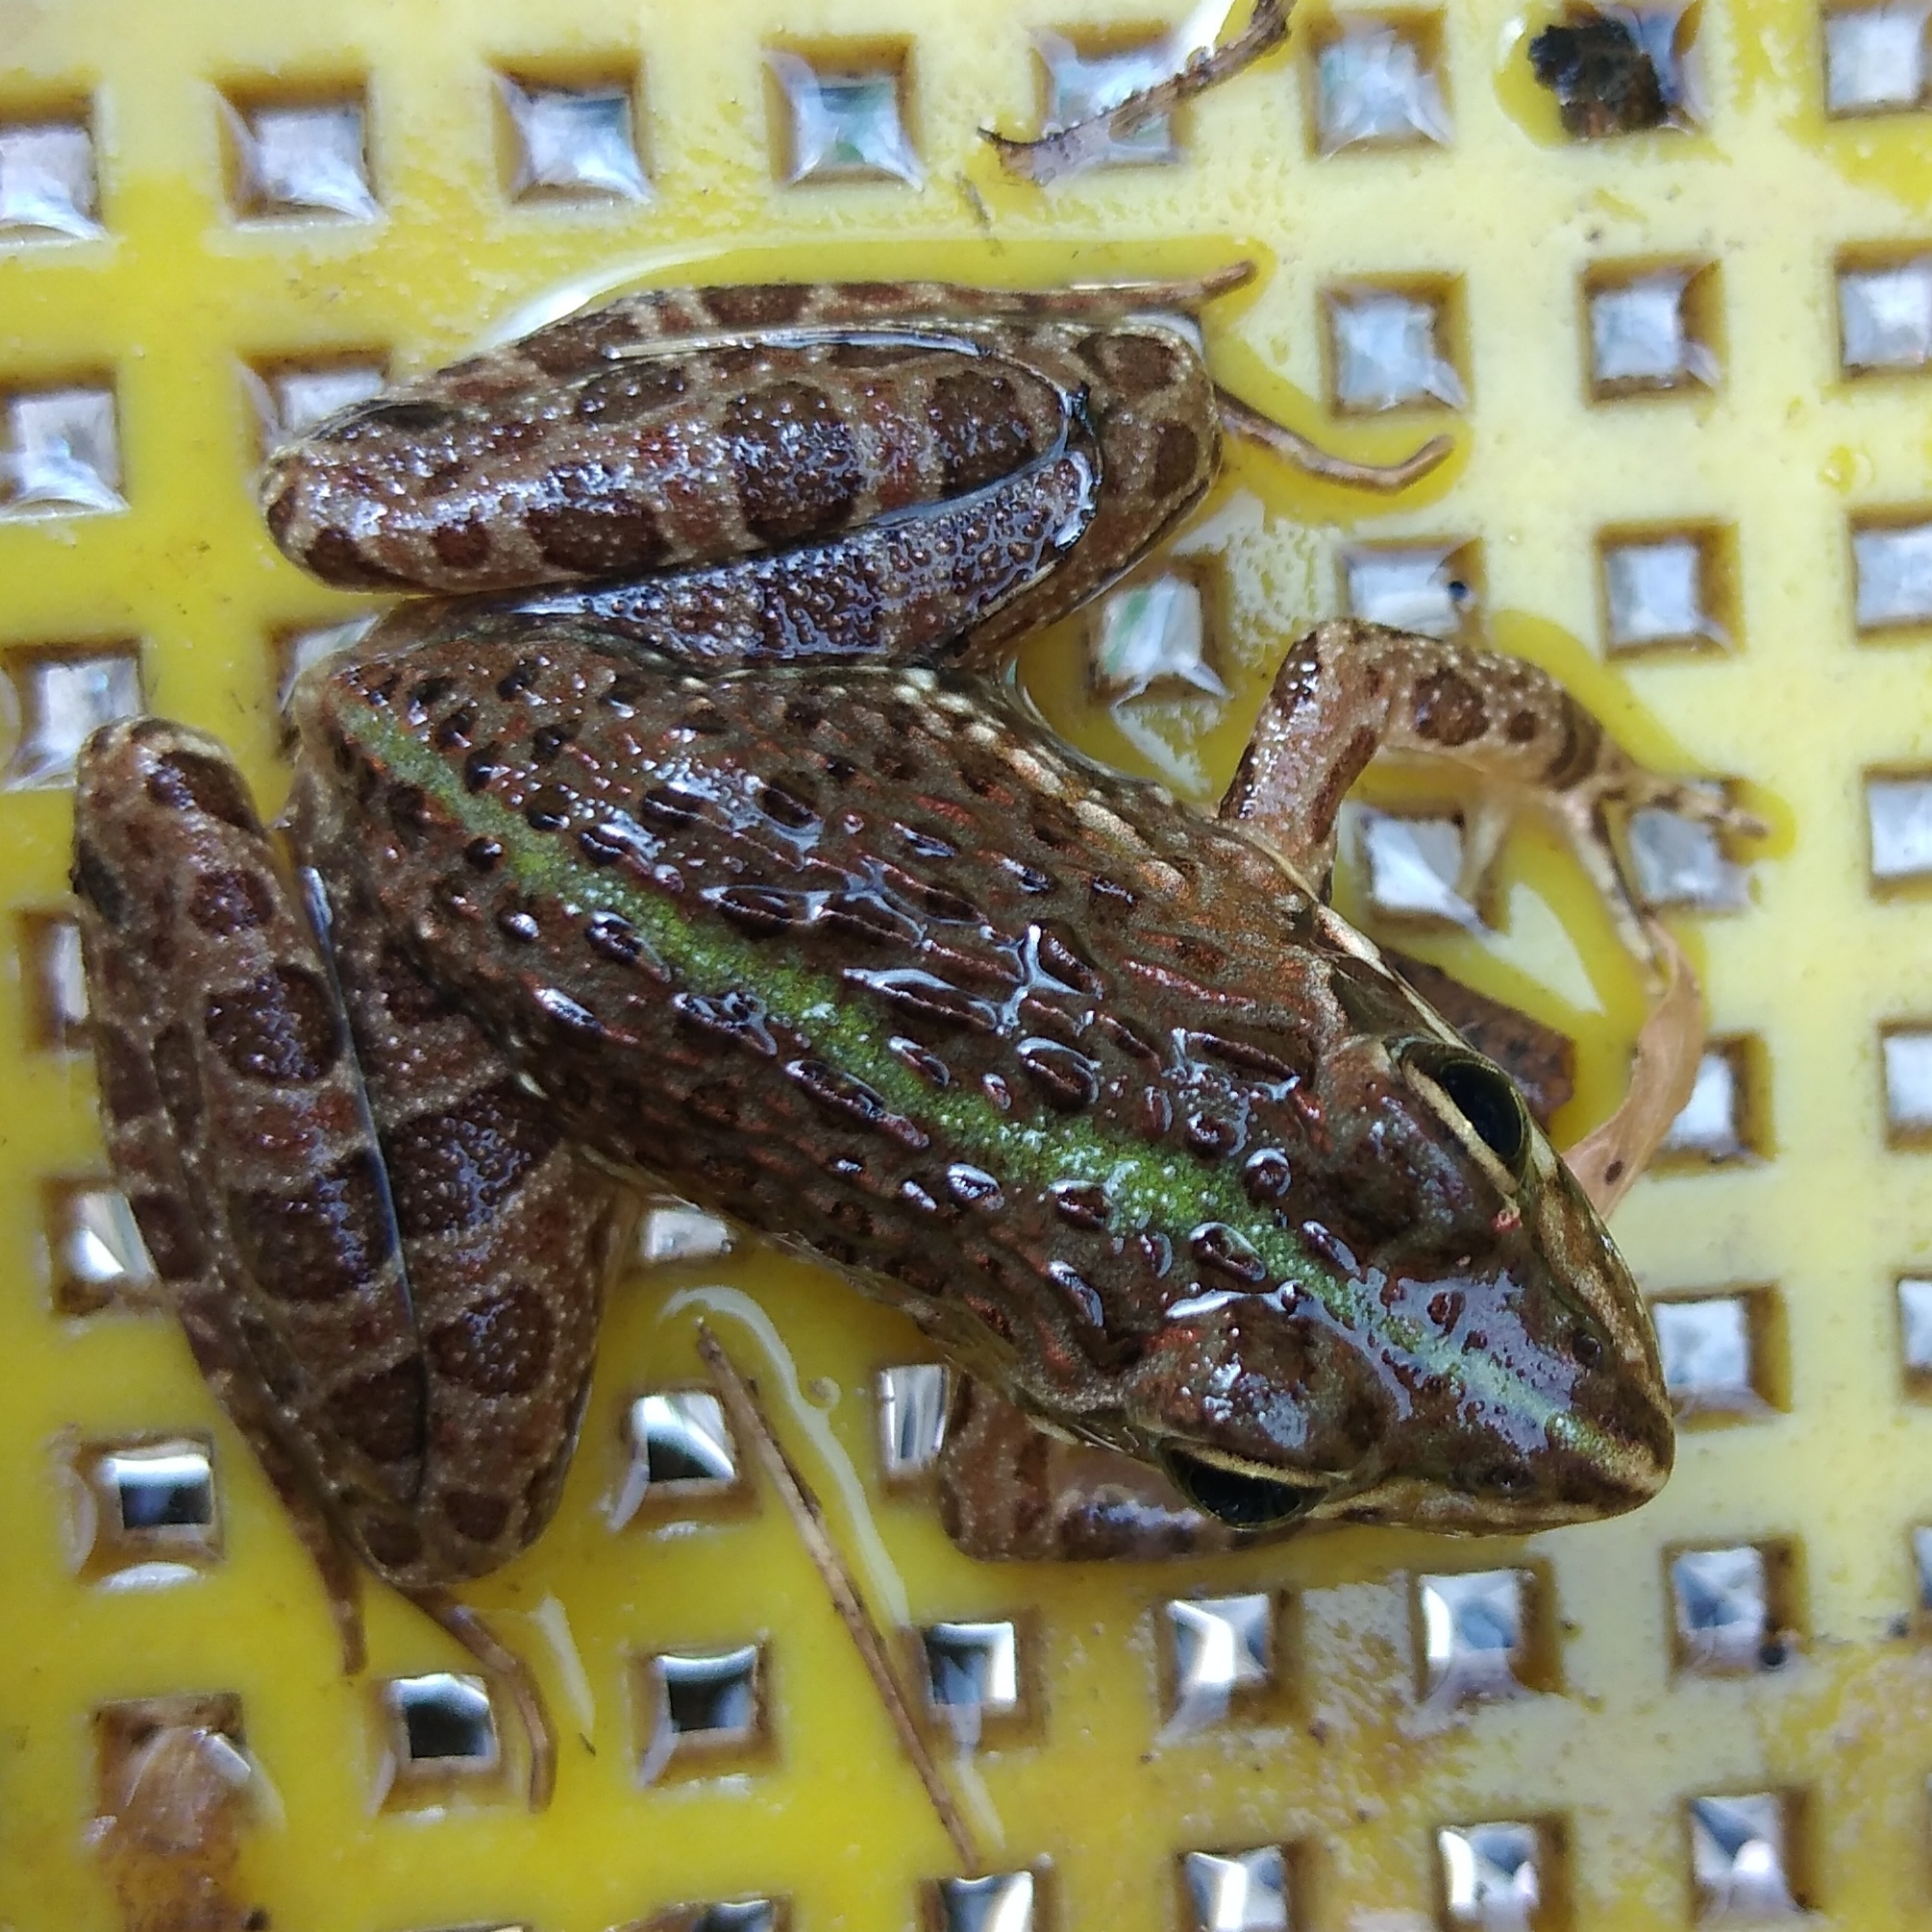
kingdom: Animalia
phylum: Chordata
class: Amphibia
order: Anura
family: Pyxicephalidae
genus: Amietia
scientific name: Amietia delalandii
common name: Delalande's river frog
